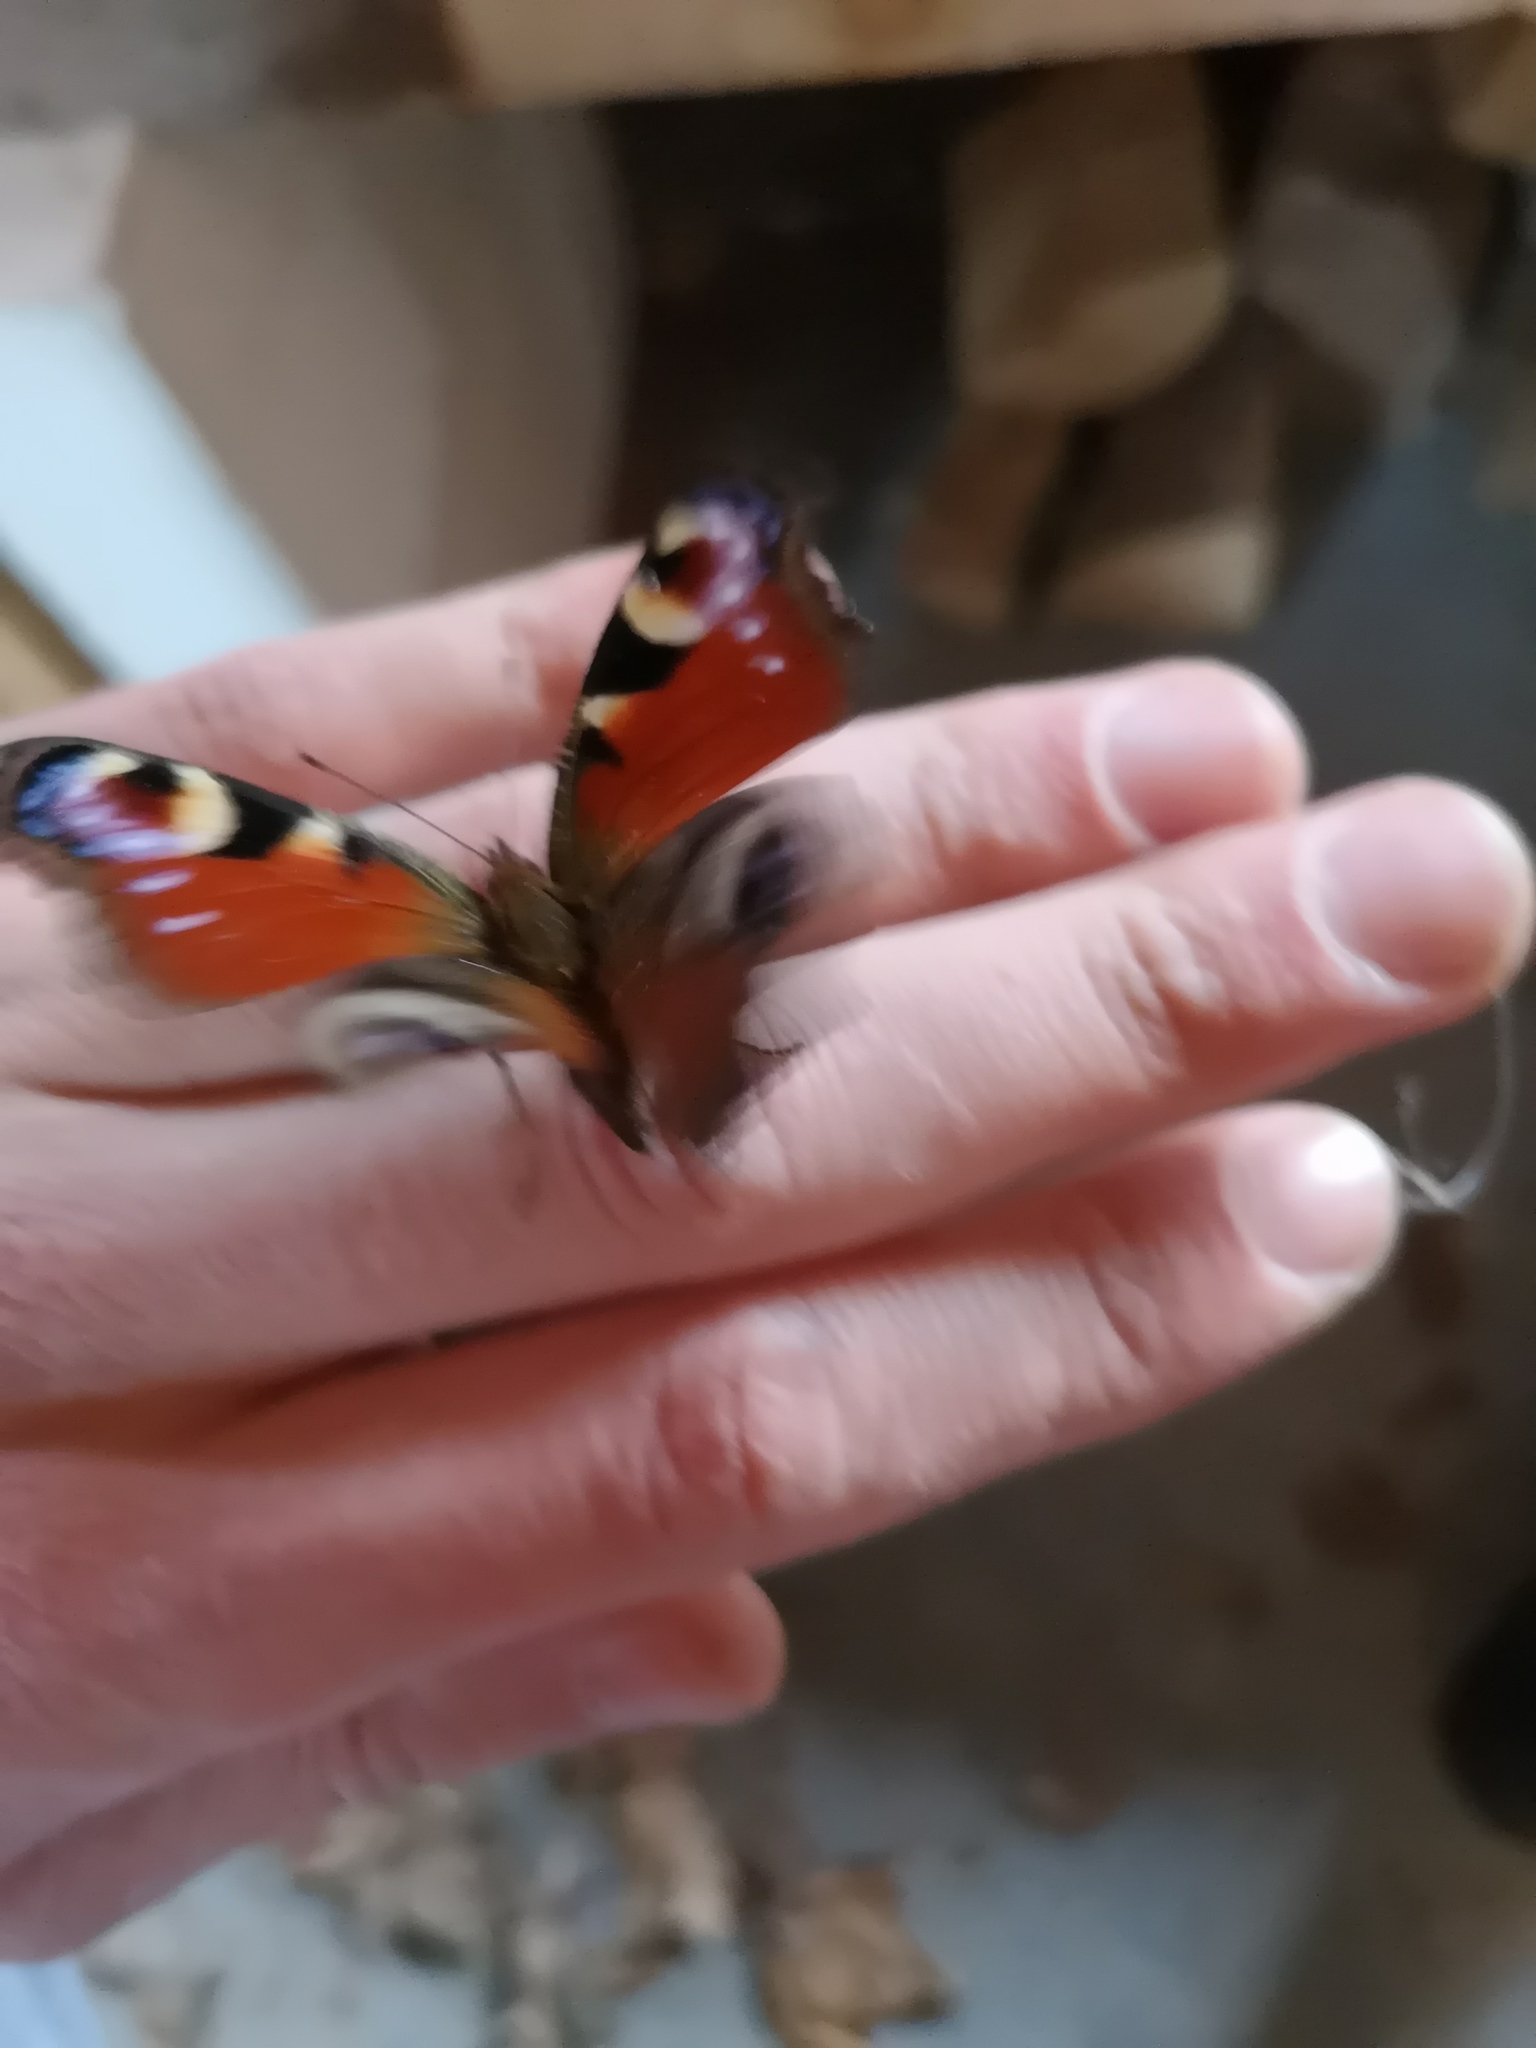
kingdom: Animalia
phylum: Arthropoda
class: Insecta
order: Lepidoptera
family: Nymphalidae
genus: Aglais
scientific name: Aglais io
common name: Peacock
